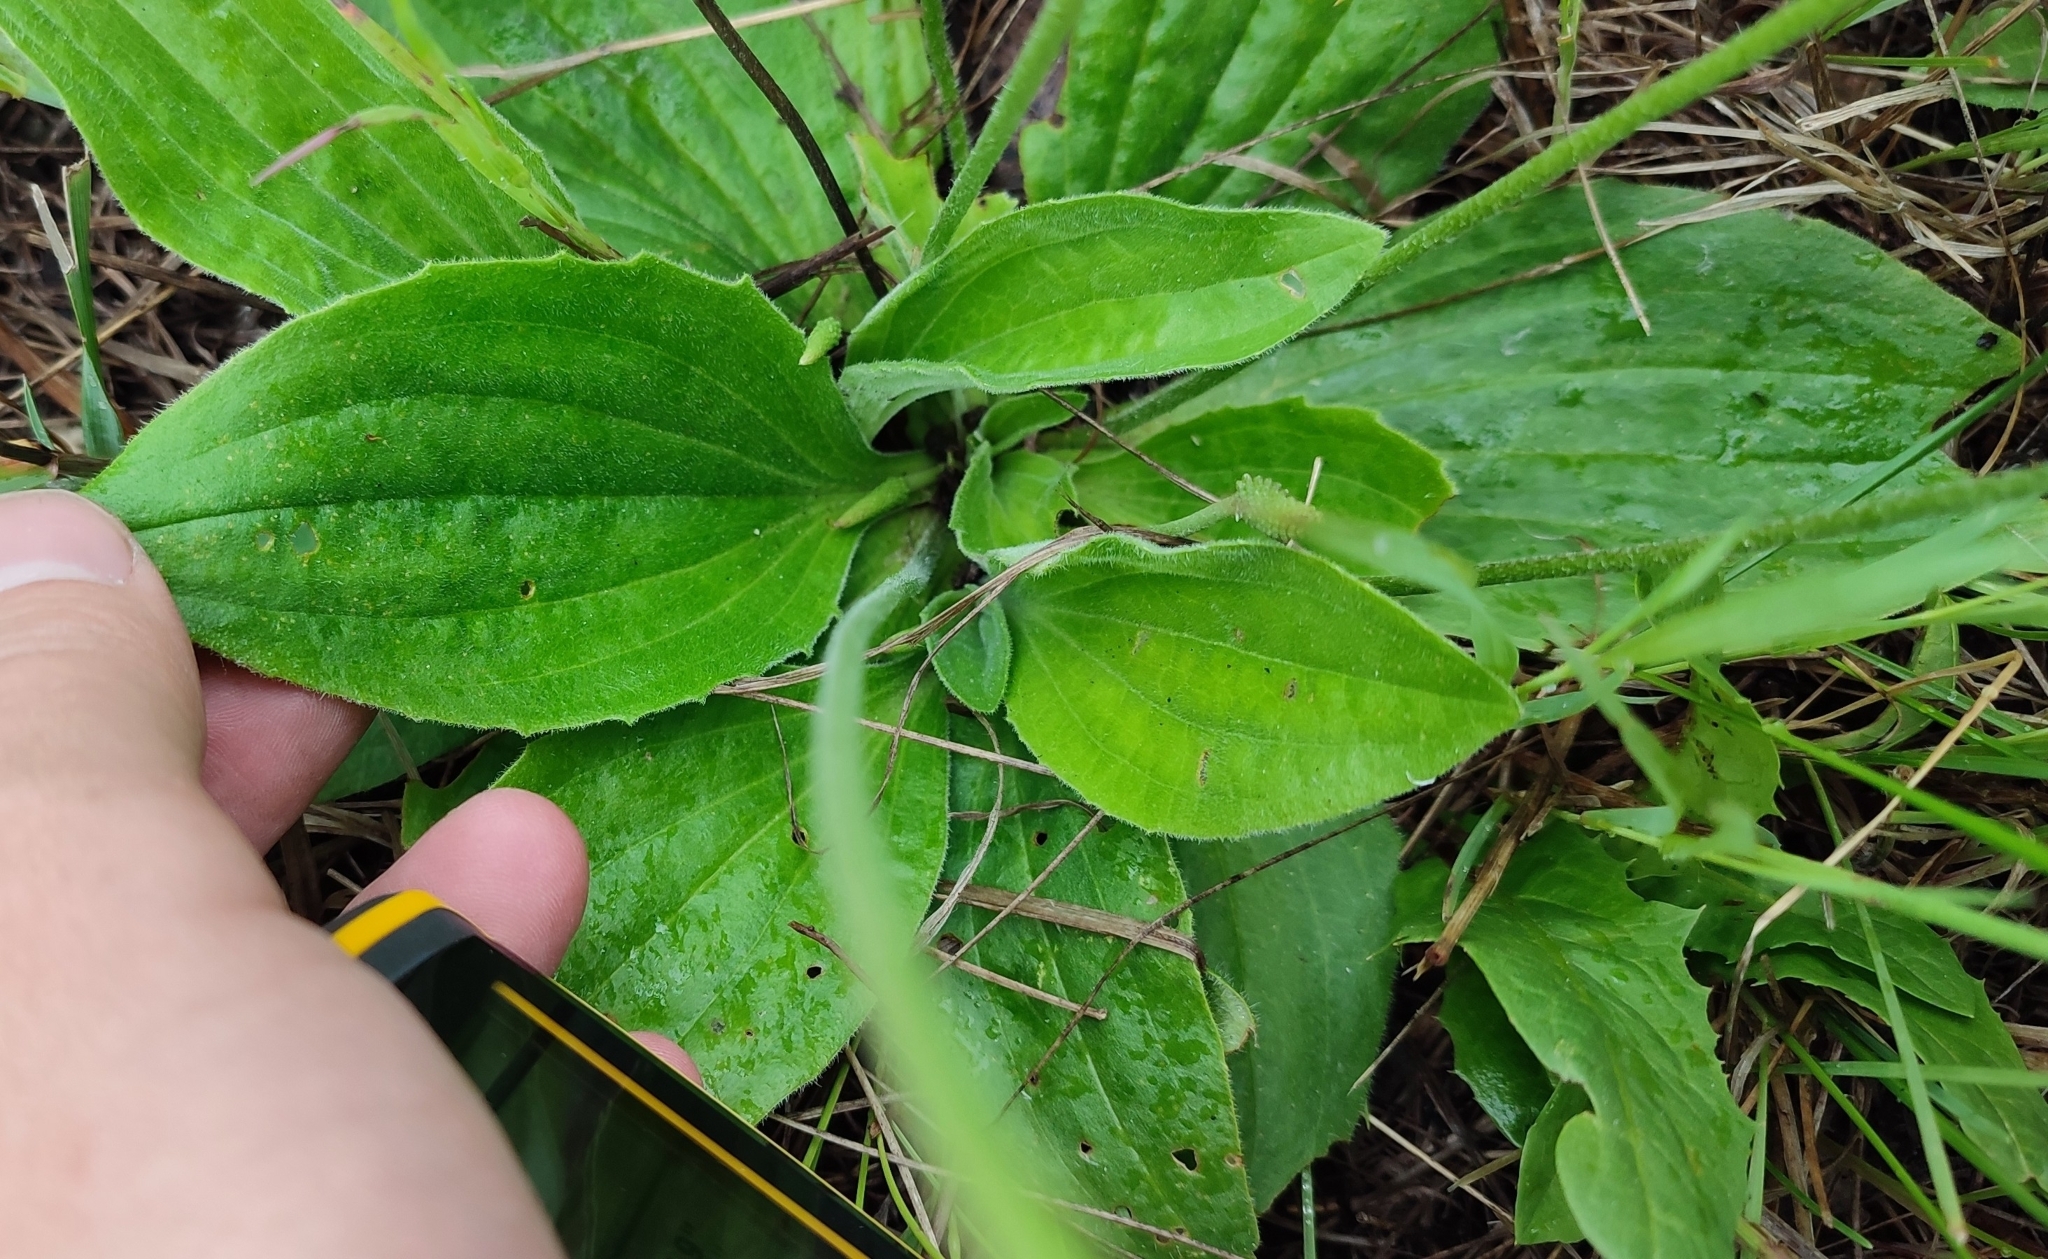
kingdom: Plantae
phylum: Tracheophyta
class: Magnoliopsida
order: Lamiales
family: Plantaginaceae
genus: Plantago
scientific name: Plantago media
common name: Hoary plantain
